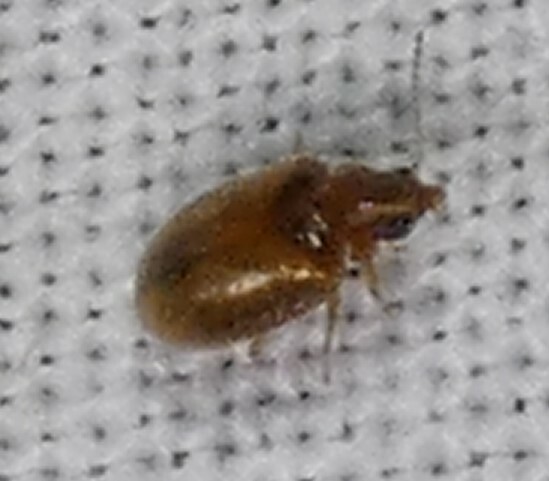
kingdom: Animalia
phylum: Arthropoda
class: Insecta
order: Coleoptera
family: Scirtidae
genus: Contacyphon
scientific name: Contacyphon
